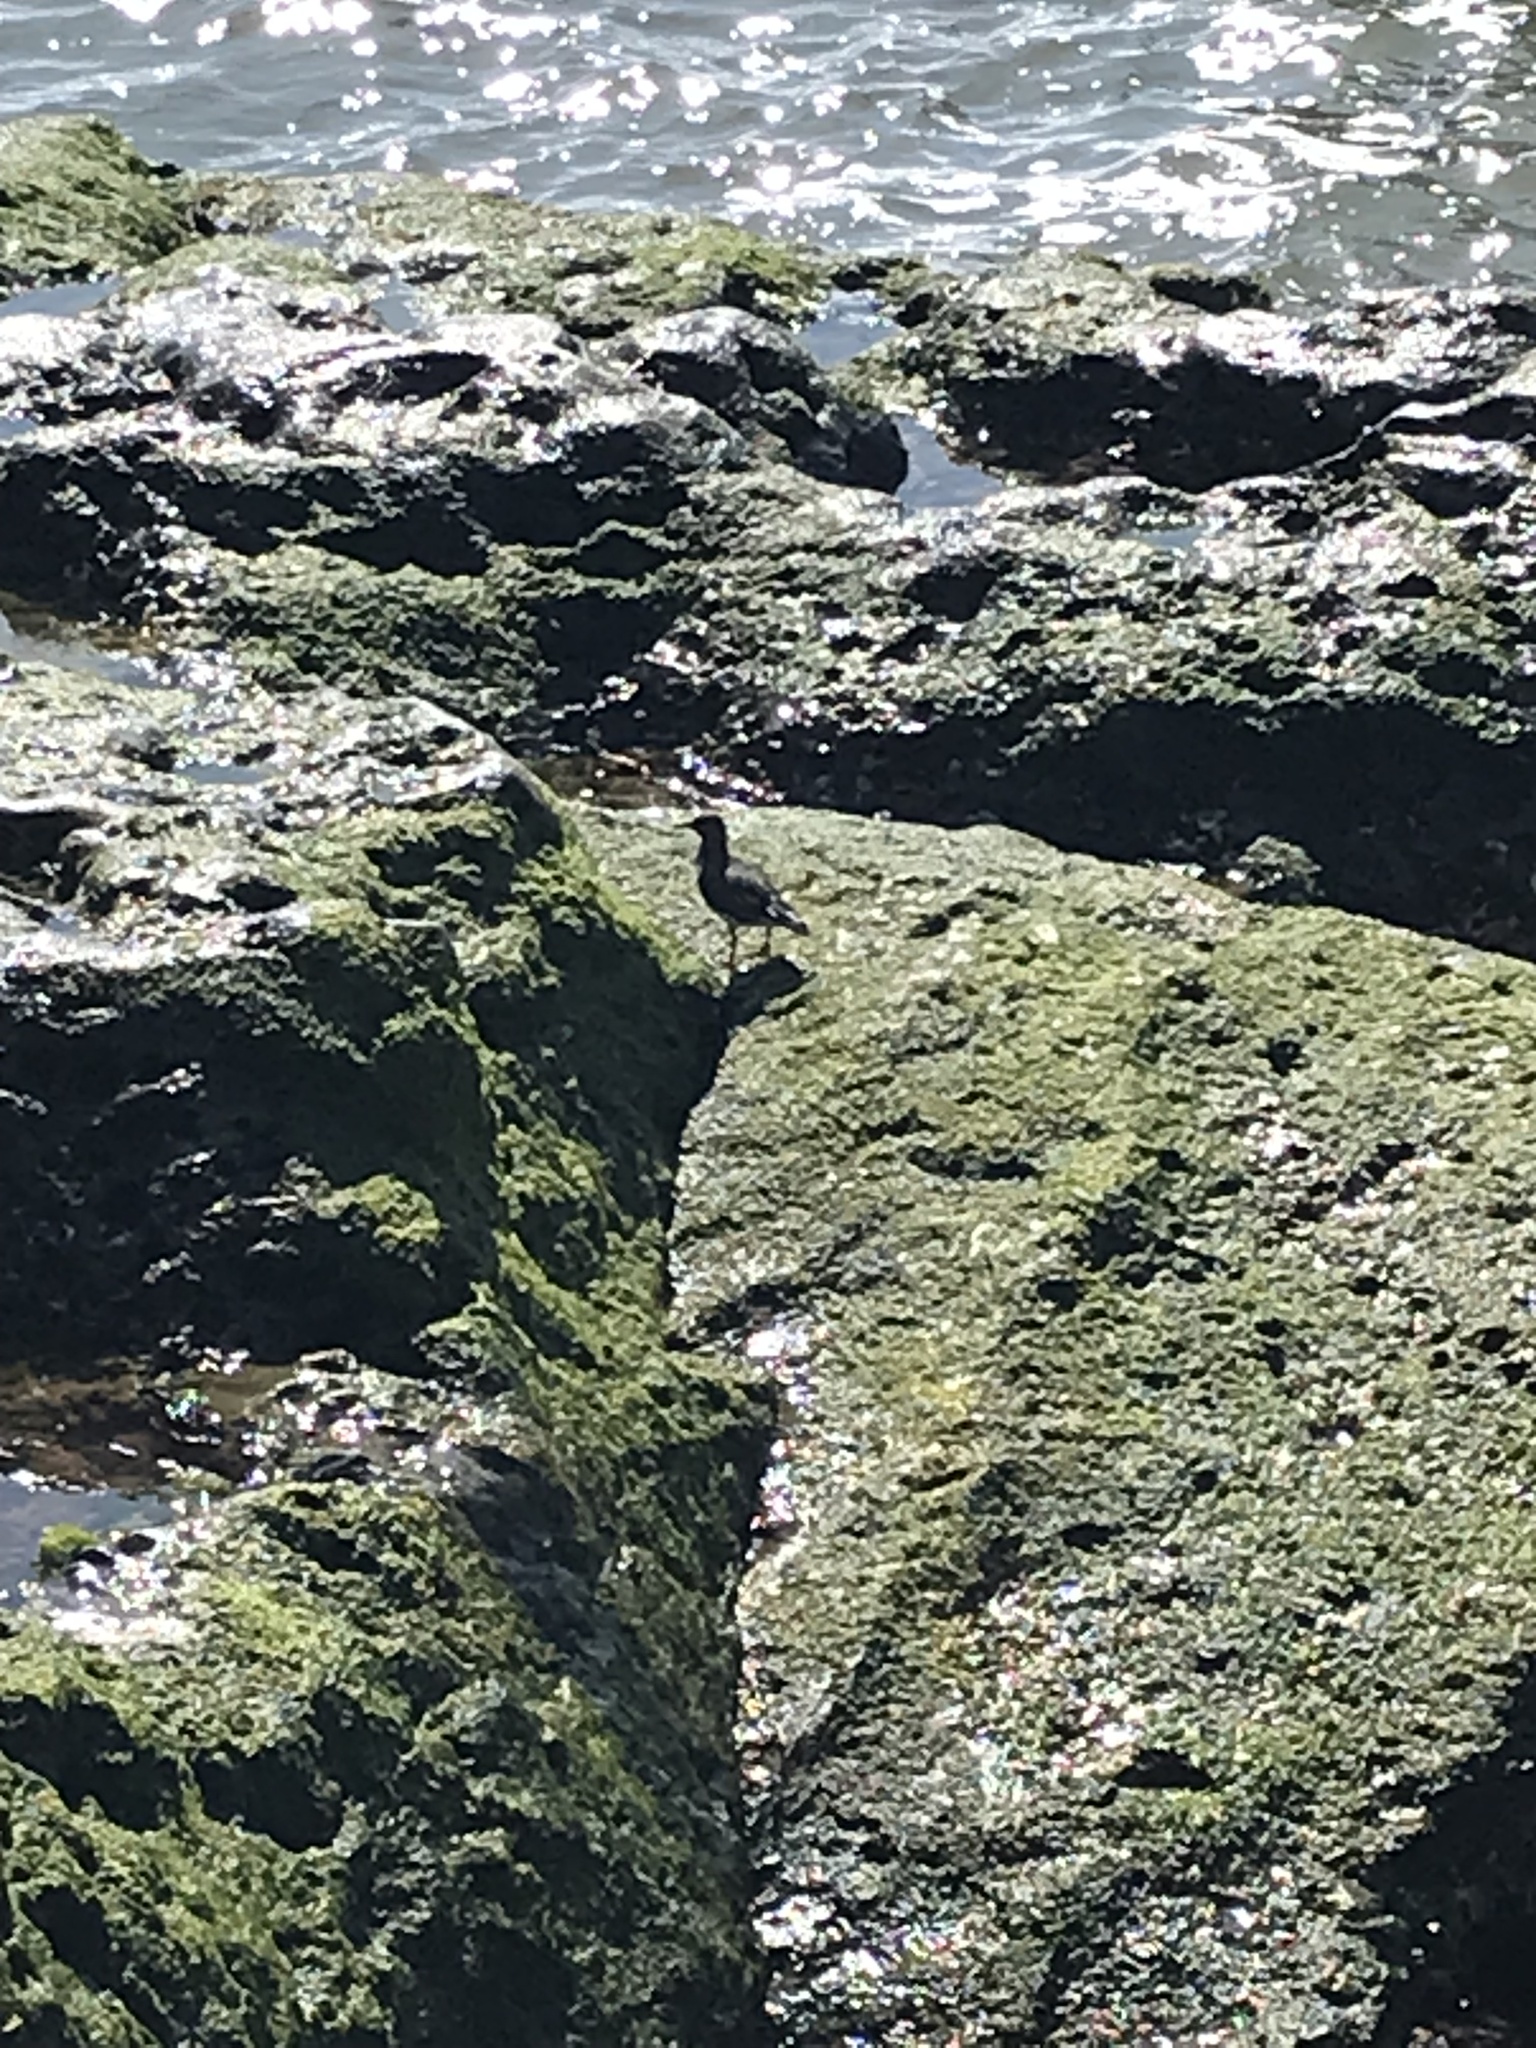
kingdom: Animalia
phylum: Chordata
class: Aves
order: Charadriiformes
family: Scolopacidae
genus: Arenaria
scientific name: Arenaria melanocephala
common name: Black turnstone
